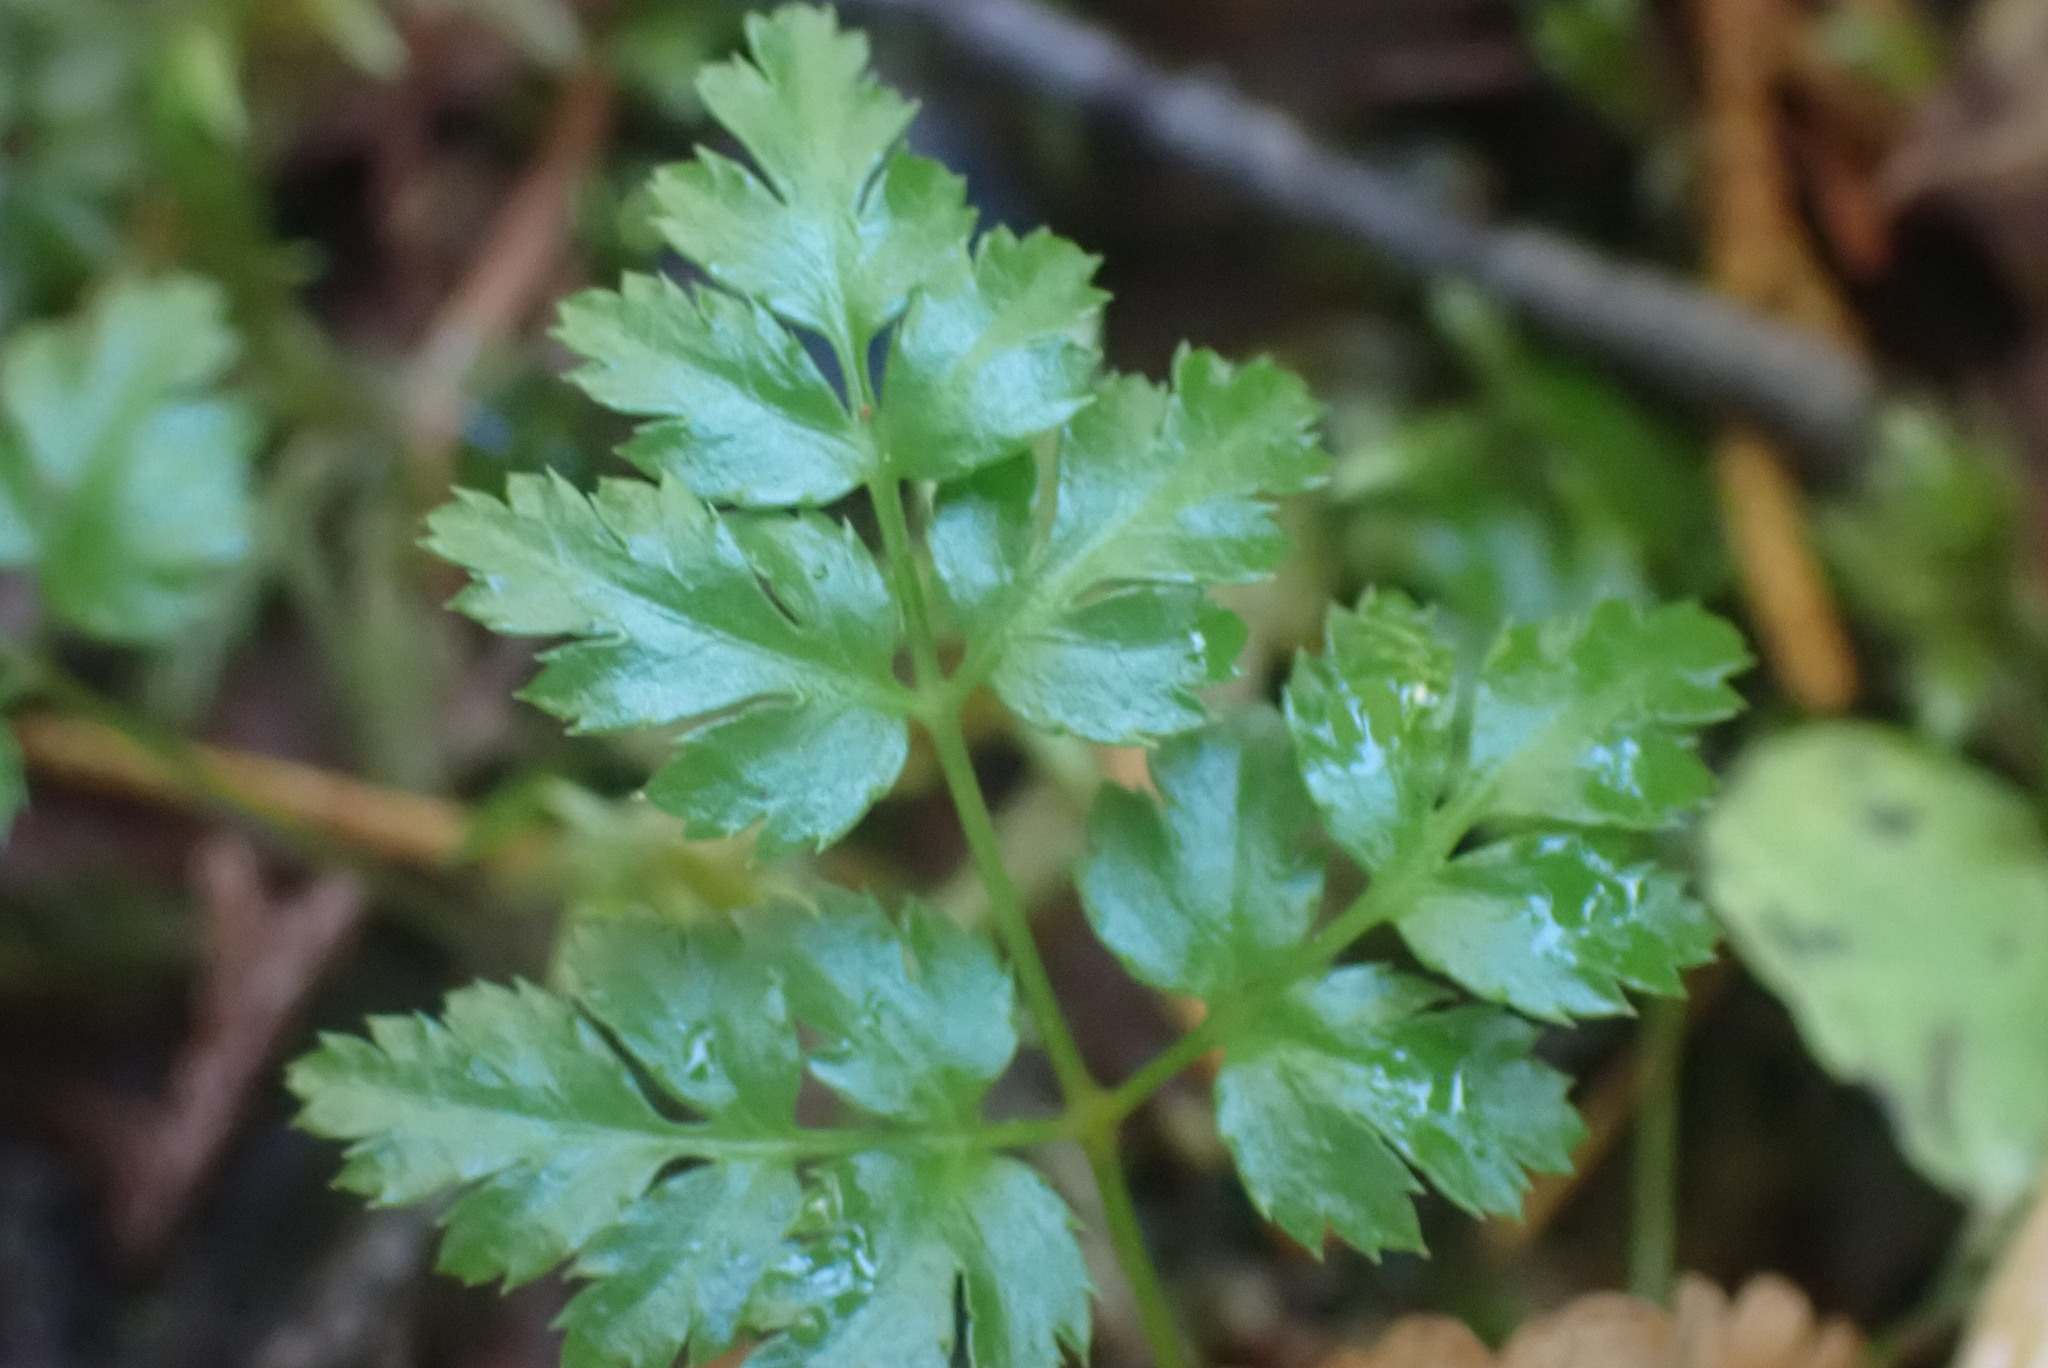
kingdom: Plantae
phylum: Tracheophyta
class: Magnoliopsida
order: Ranunculales
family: Ranunculaceae
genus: Coptis
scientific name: Coptis aspleniifolia
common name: Fern-leaved goldthread
